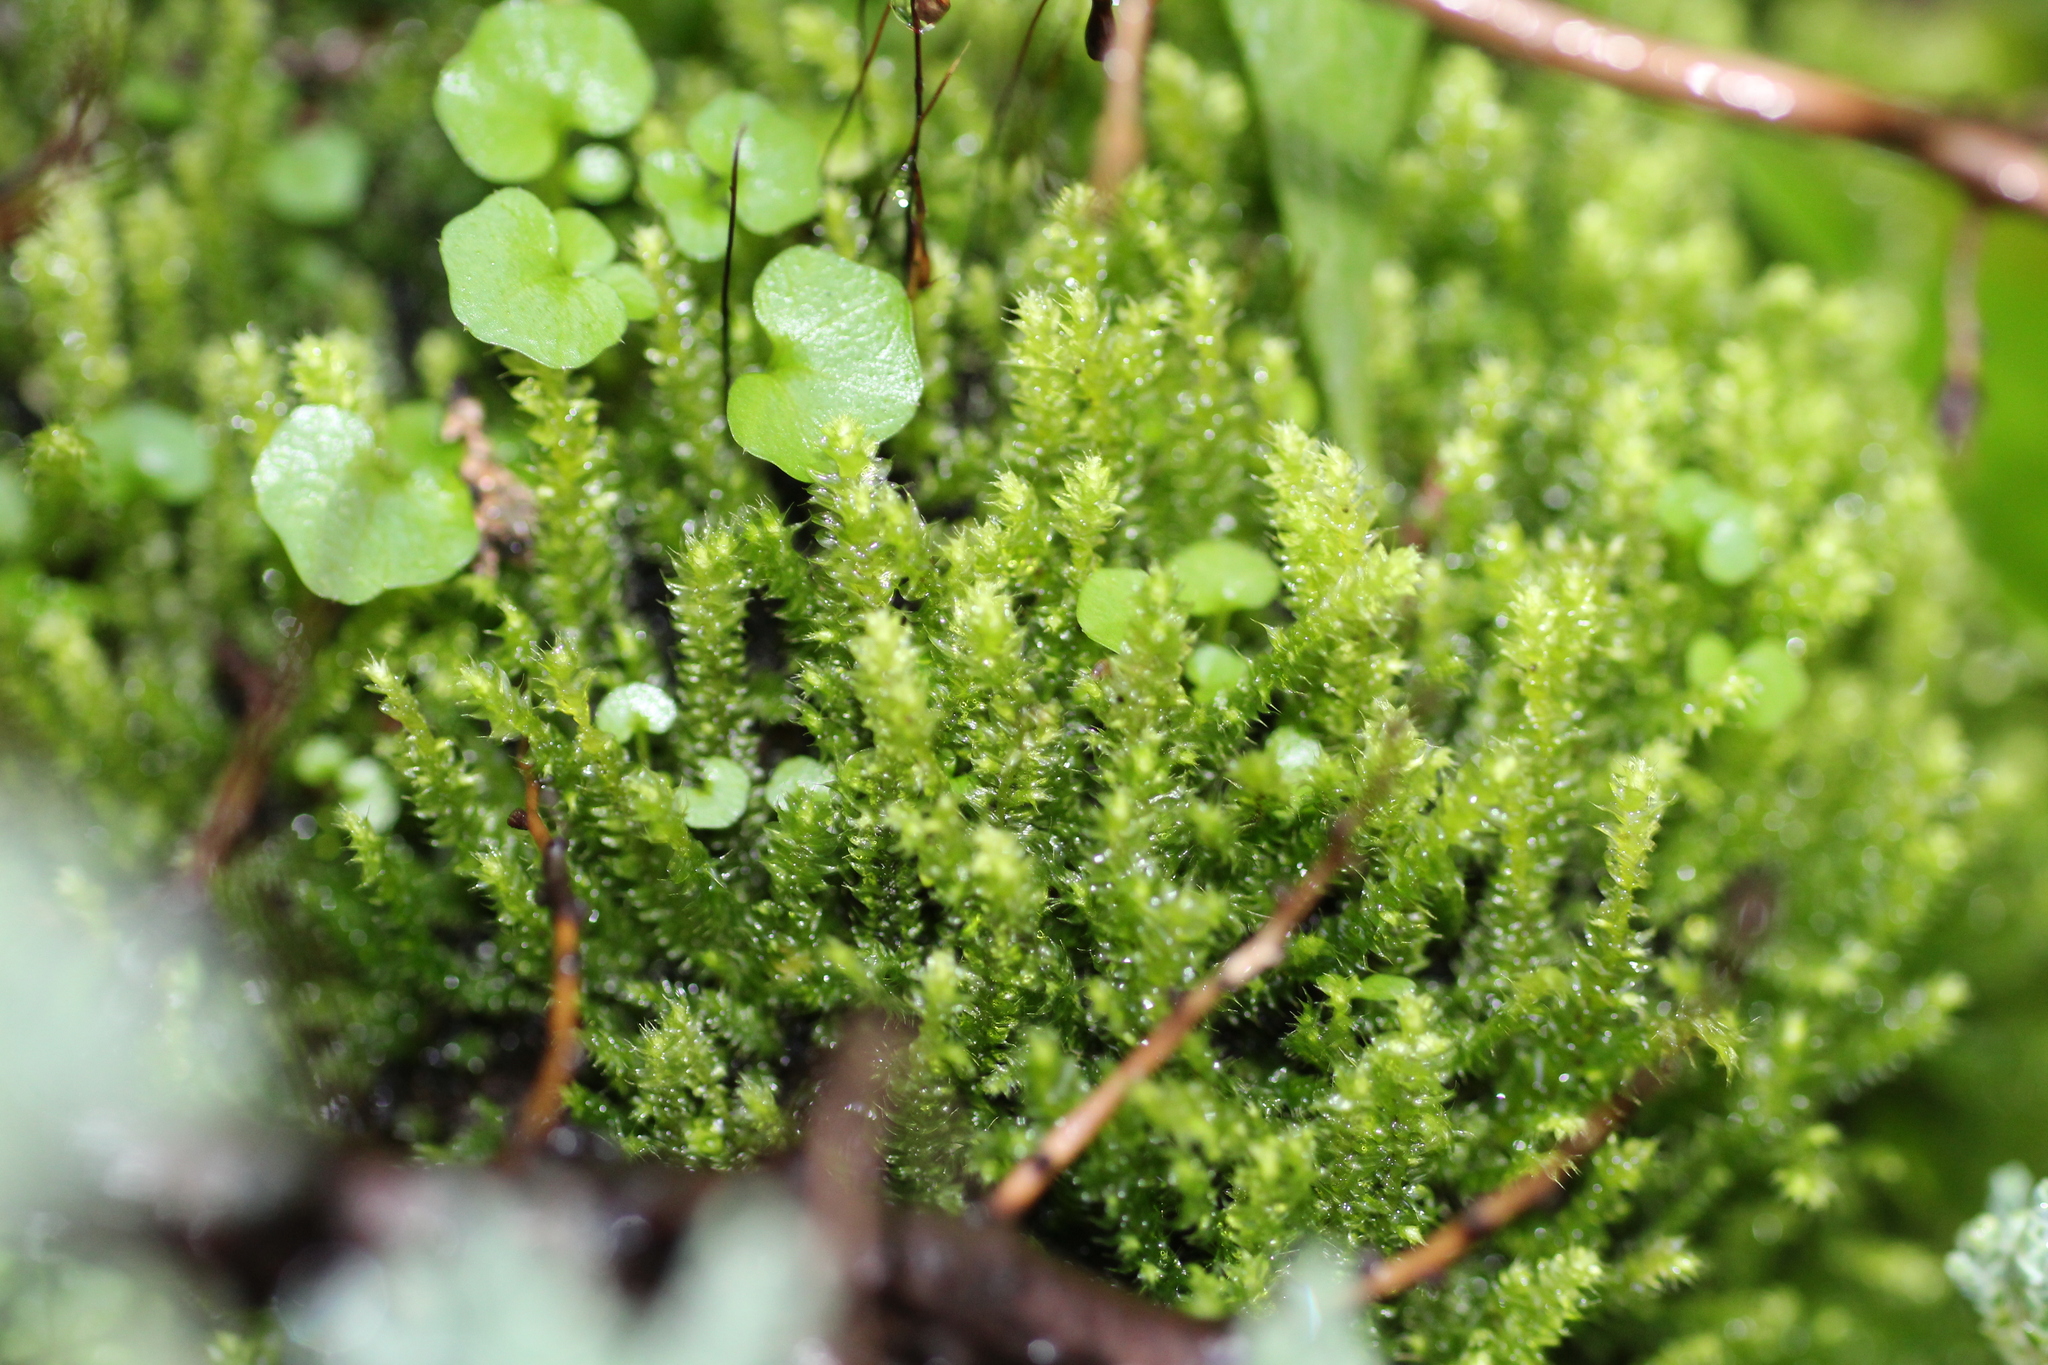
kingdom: Plantae
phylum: Bryophyta
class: Bryopsida
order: Hypnodendrales
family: Racopilaceae
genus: Racopilum
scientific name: Racopilum cuspidigerum
